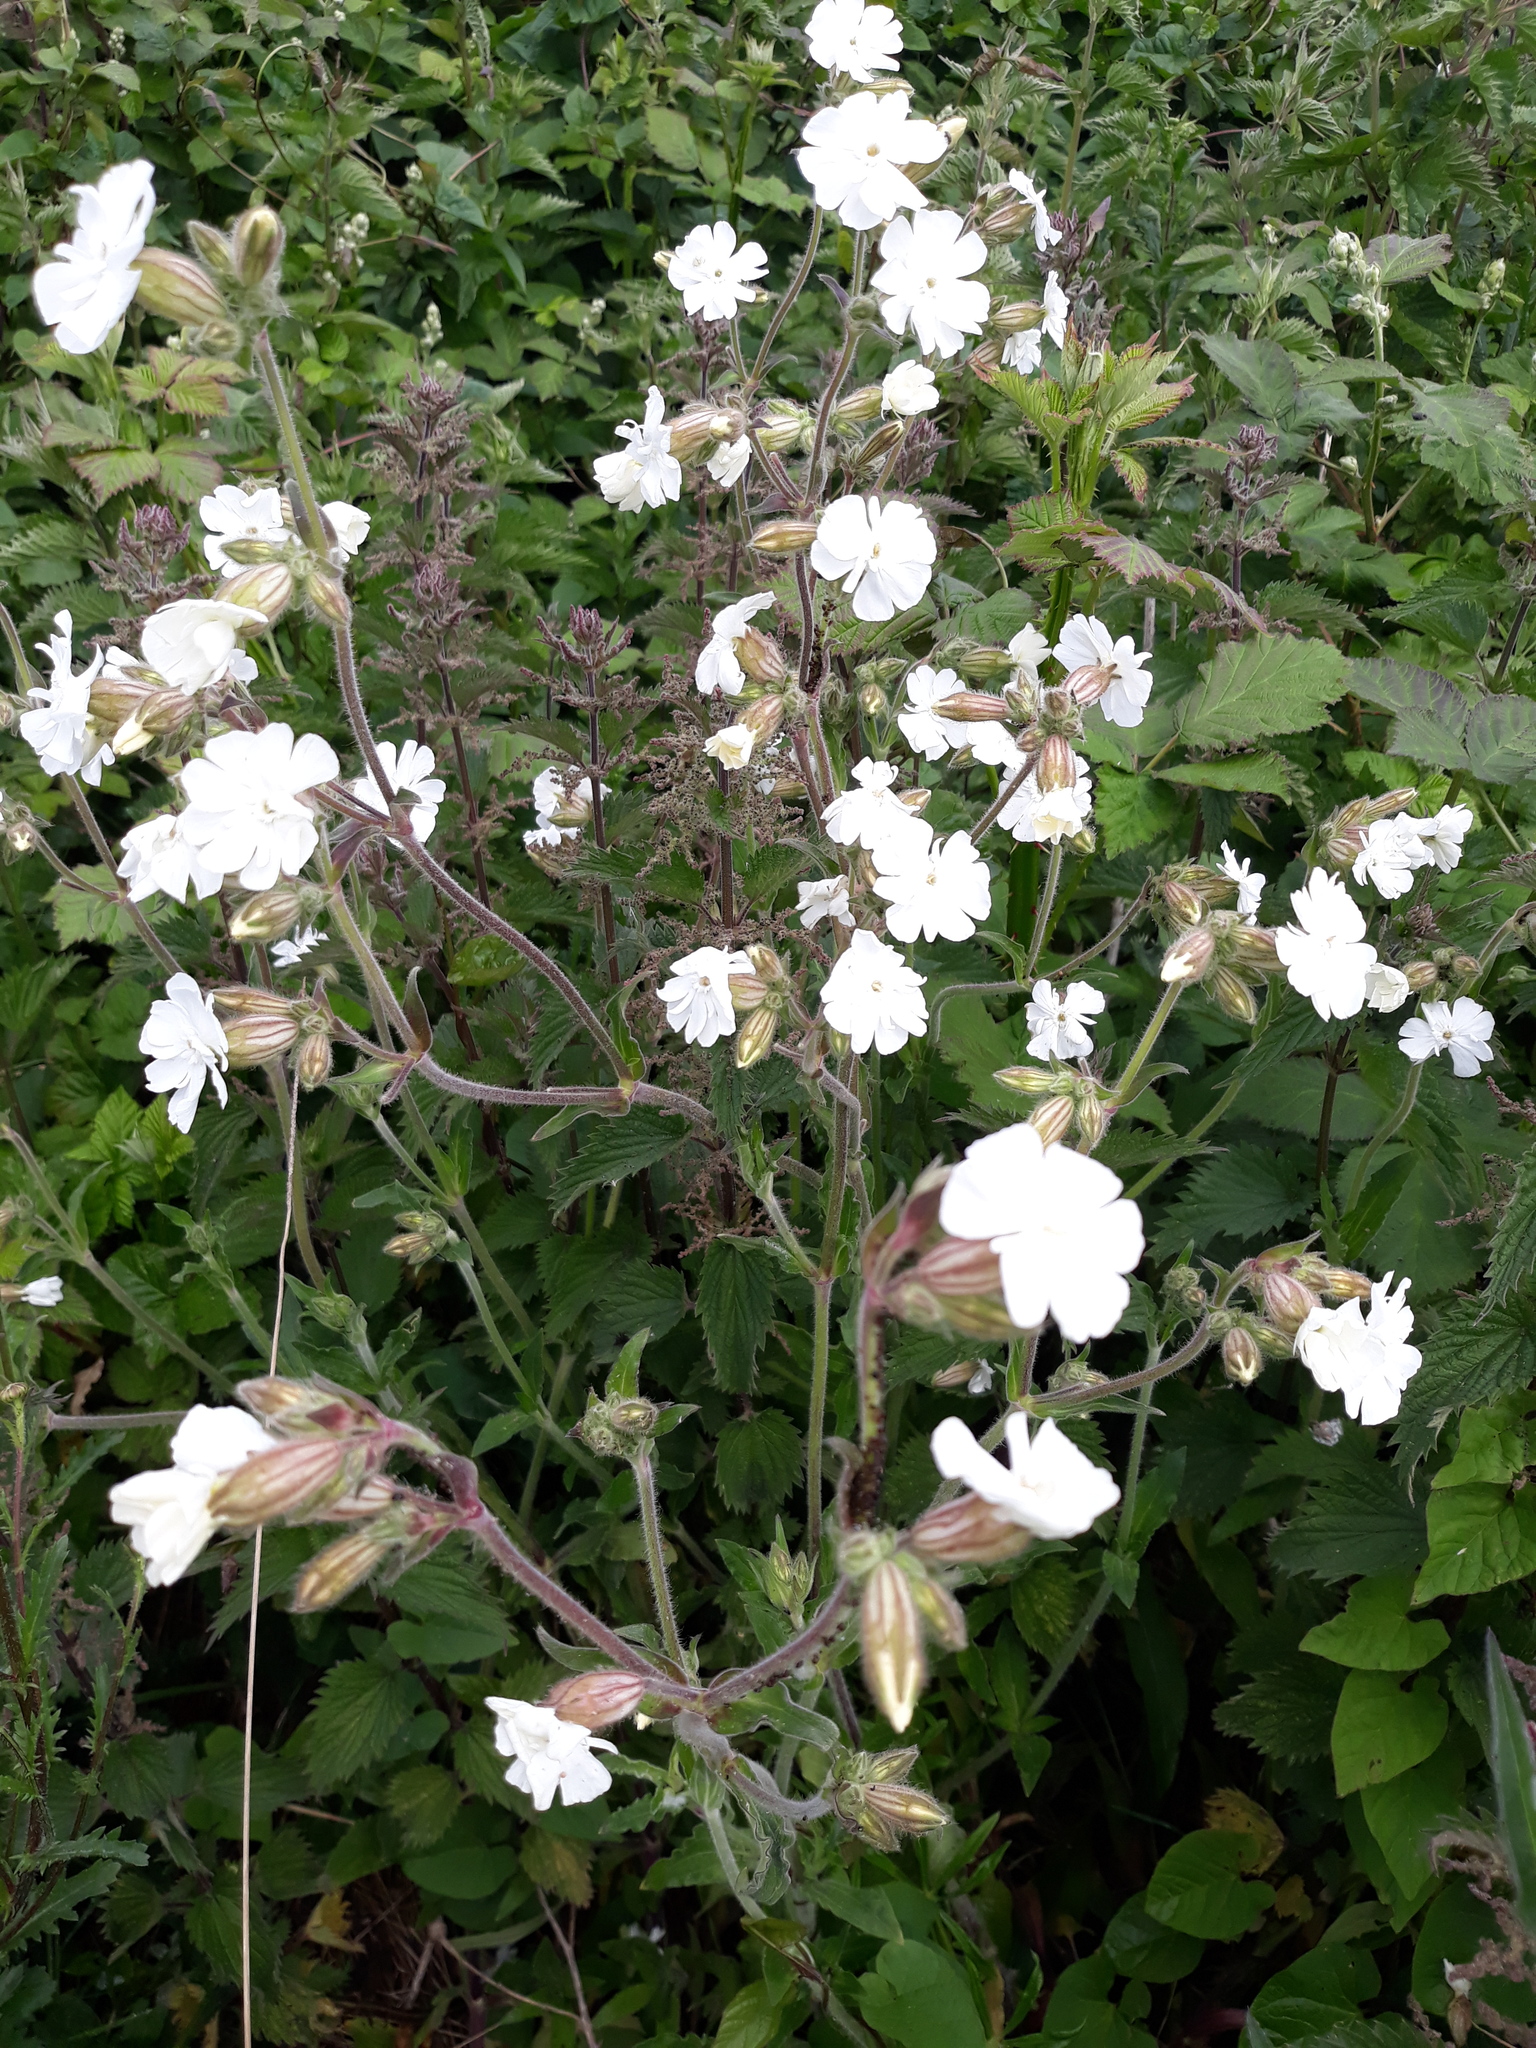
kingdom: Plantae
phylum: Tracheophyta
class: Magnoliopsida
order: Caryophyllales
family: Caryophyllaceae
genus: Silene
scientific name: Silene latifolia
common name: White campion
